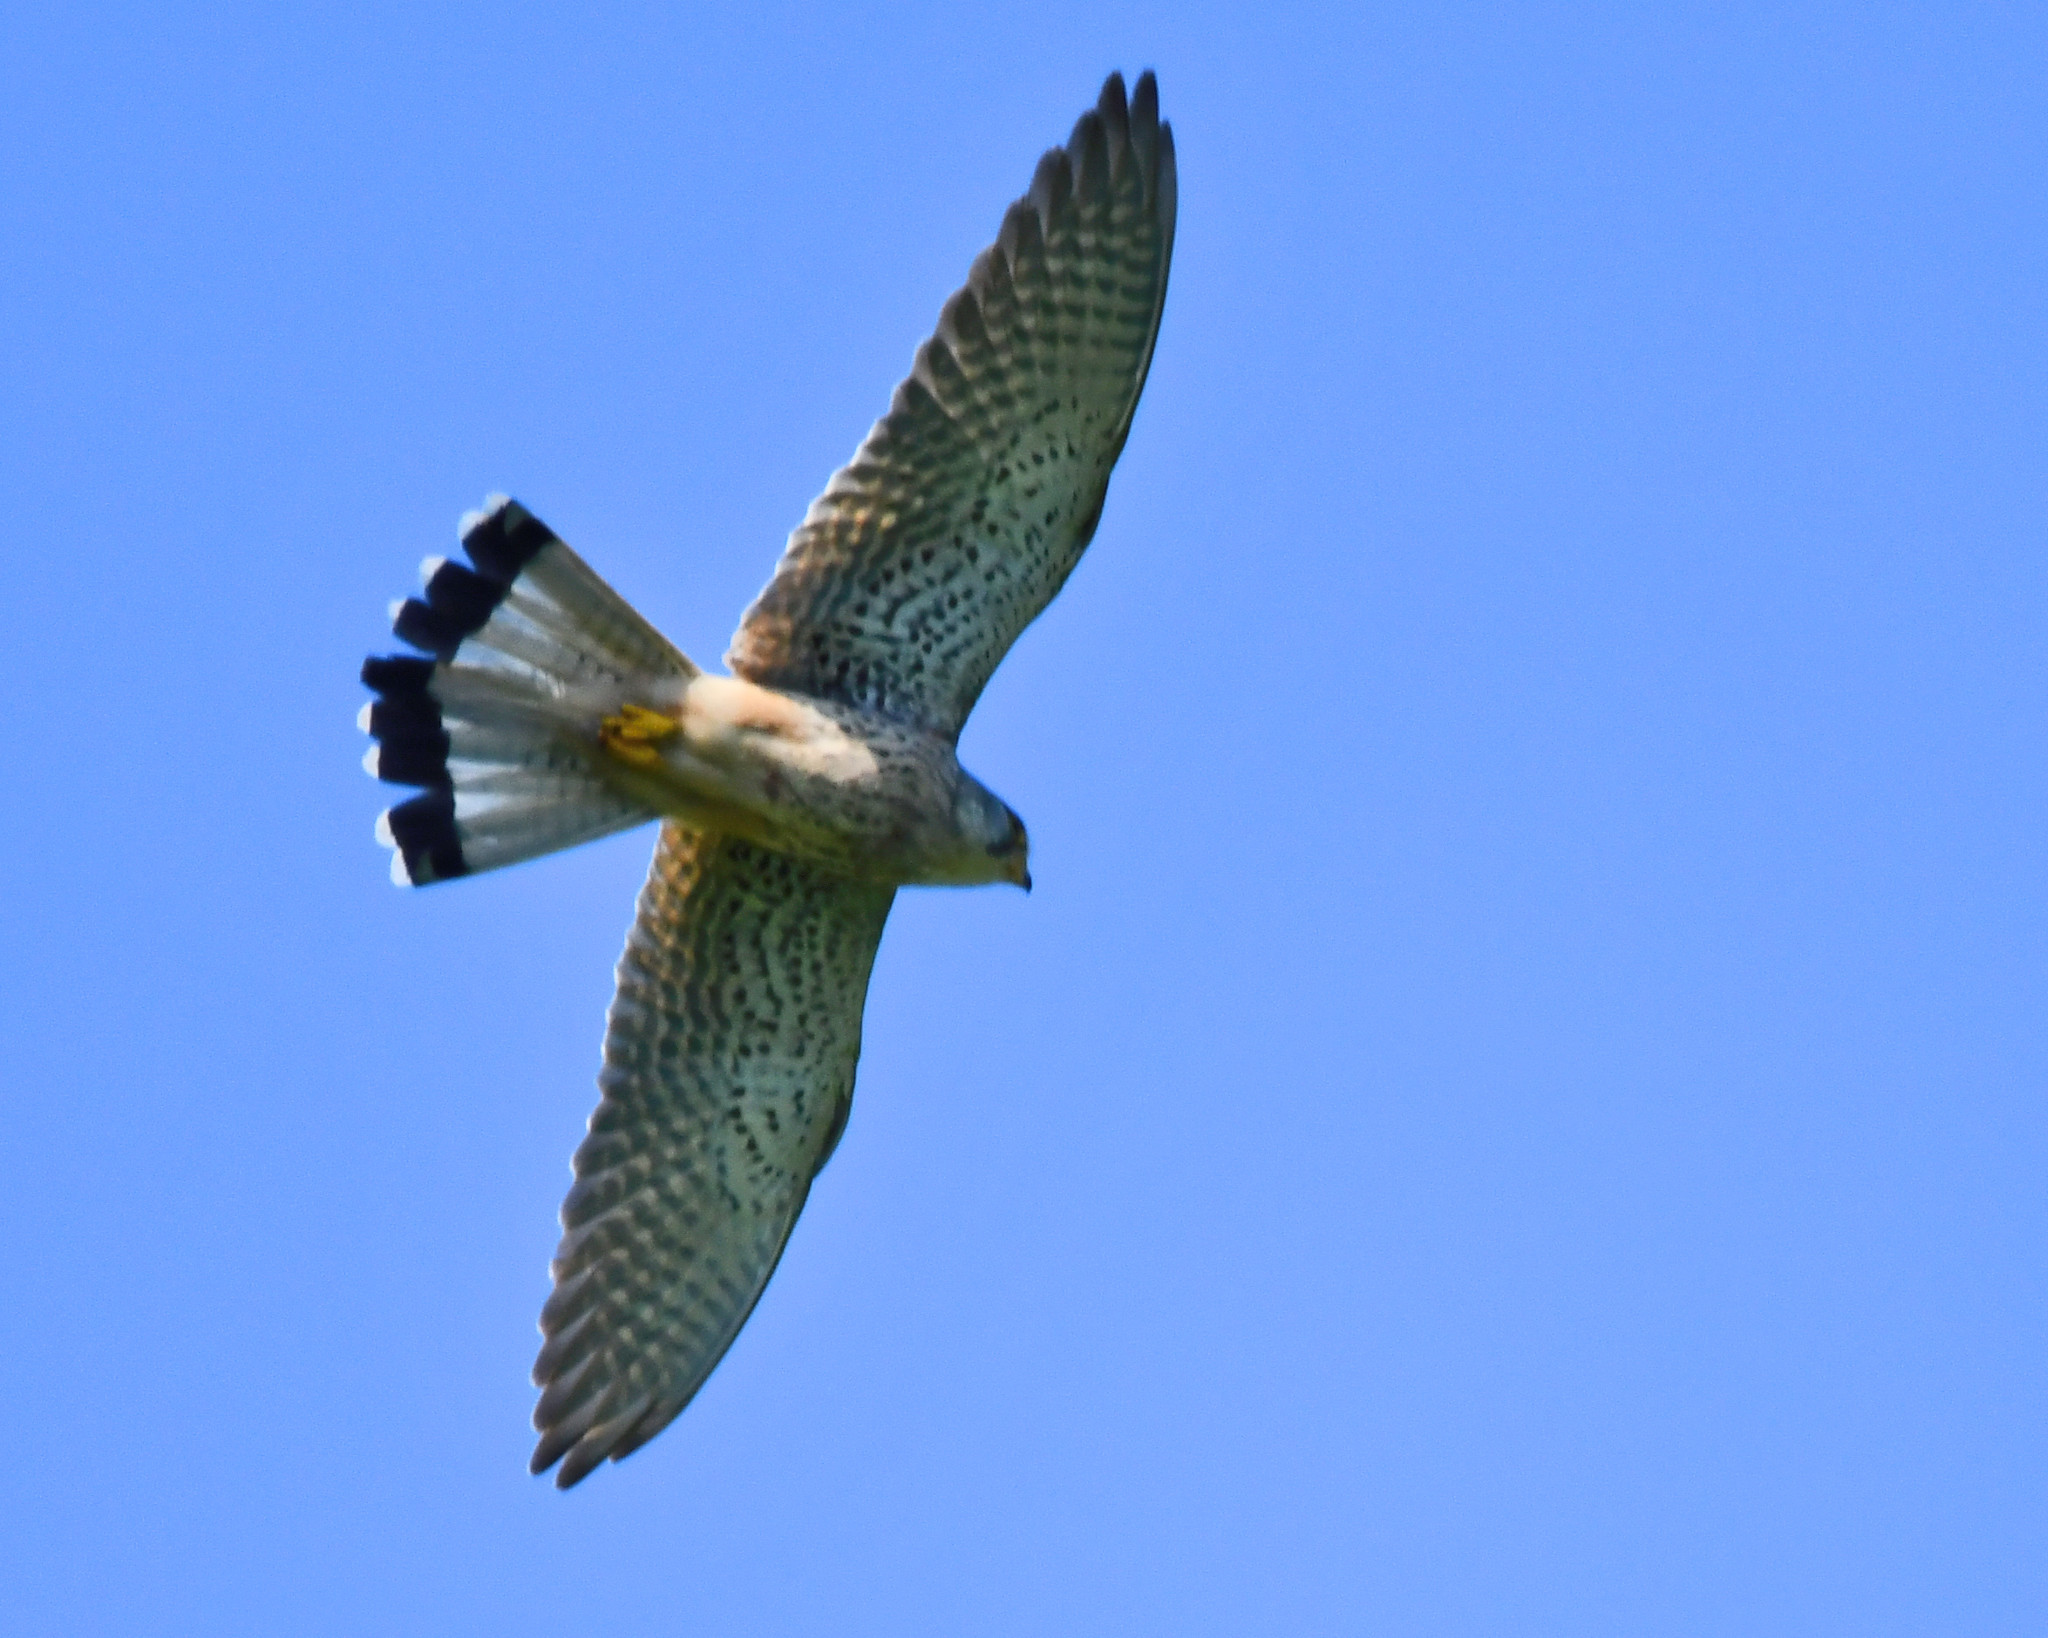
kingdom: Animalia
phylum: Chordata
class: Aves
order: Falconiformes
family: Falconidae
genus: Falco
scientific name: Falco tinnunculus
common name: Common kestrel
